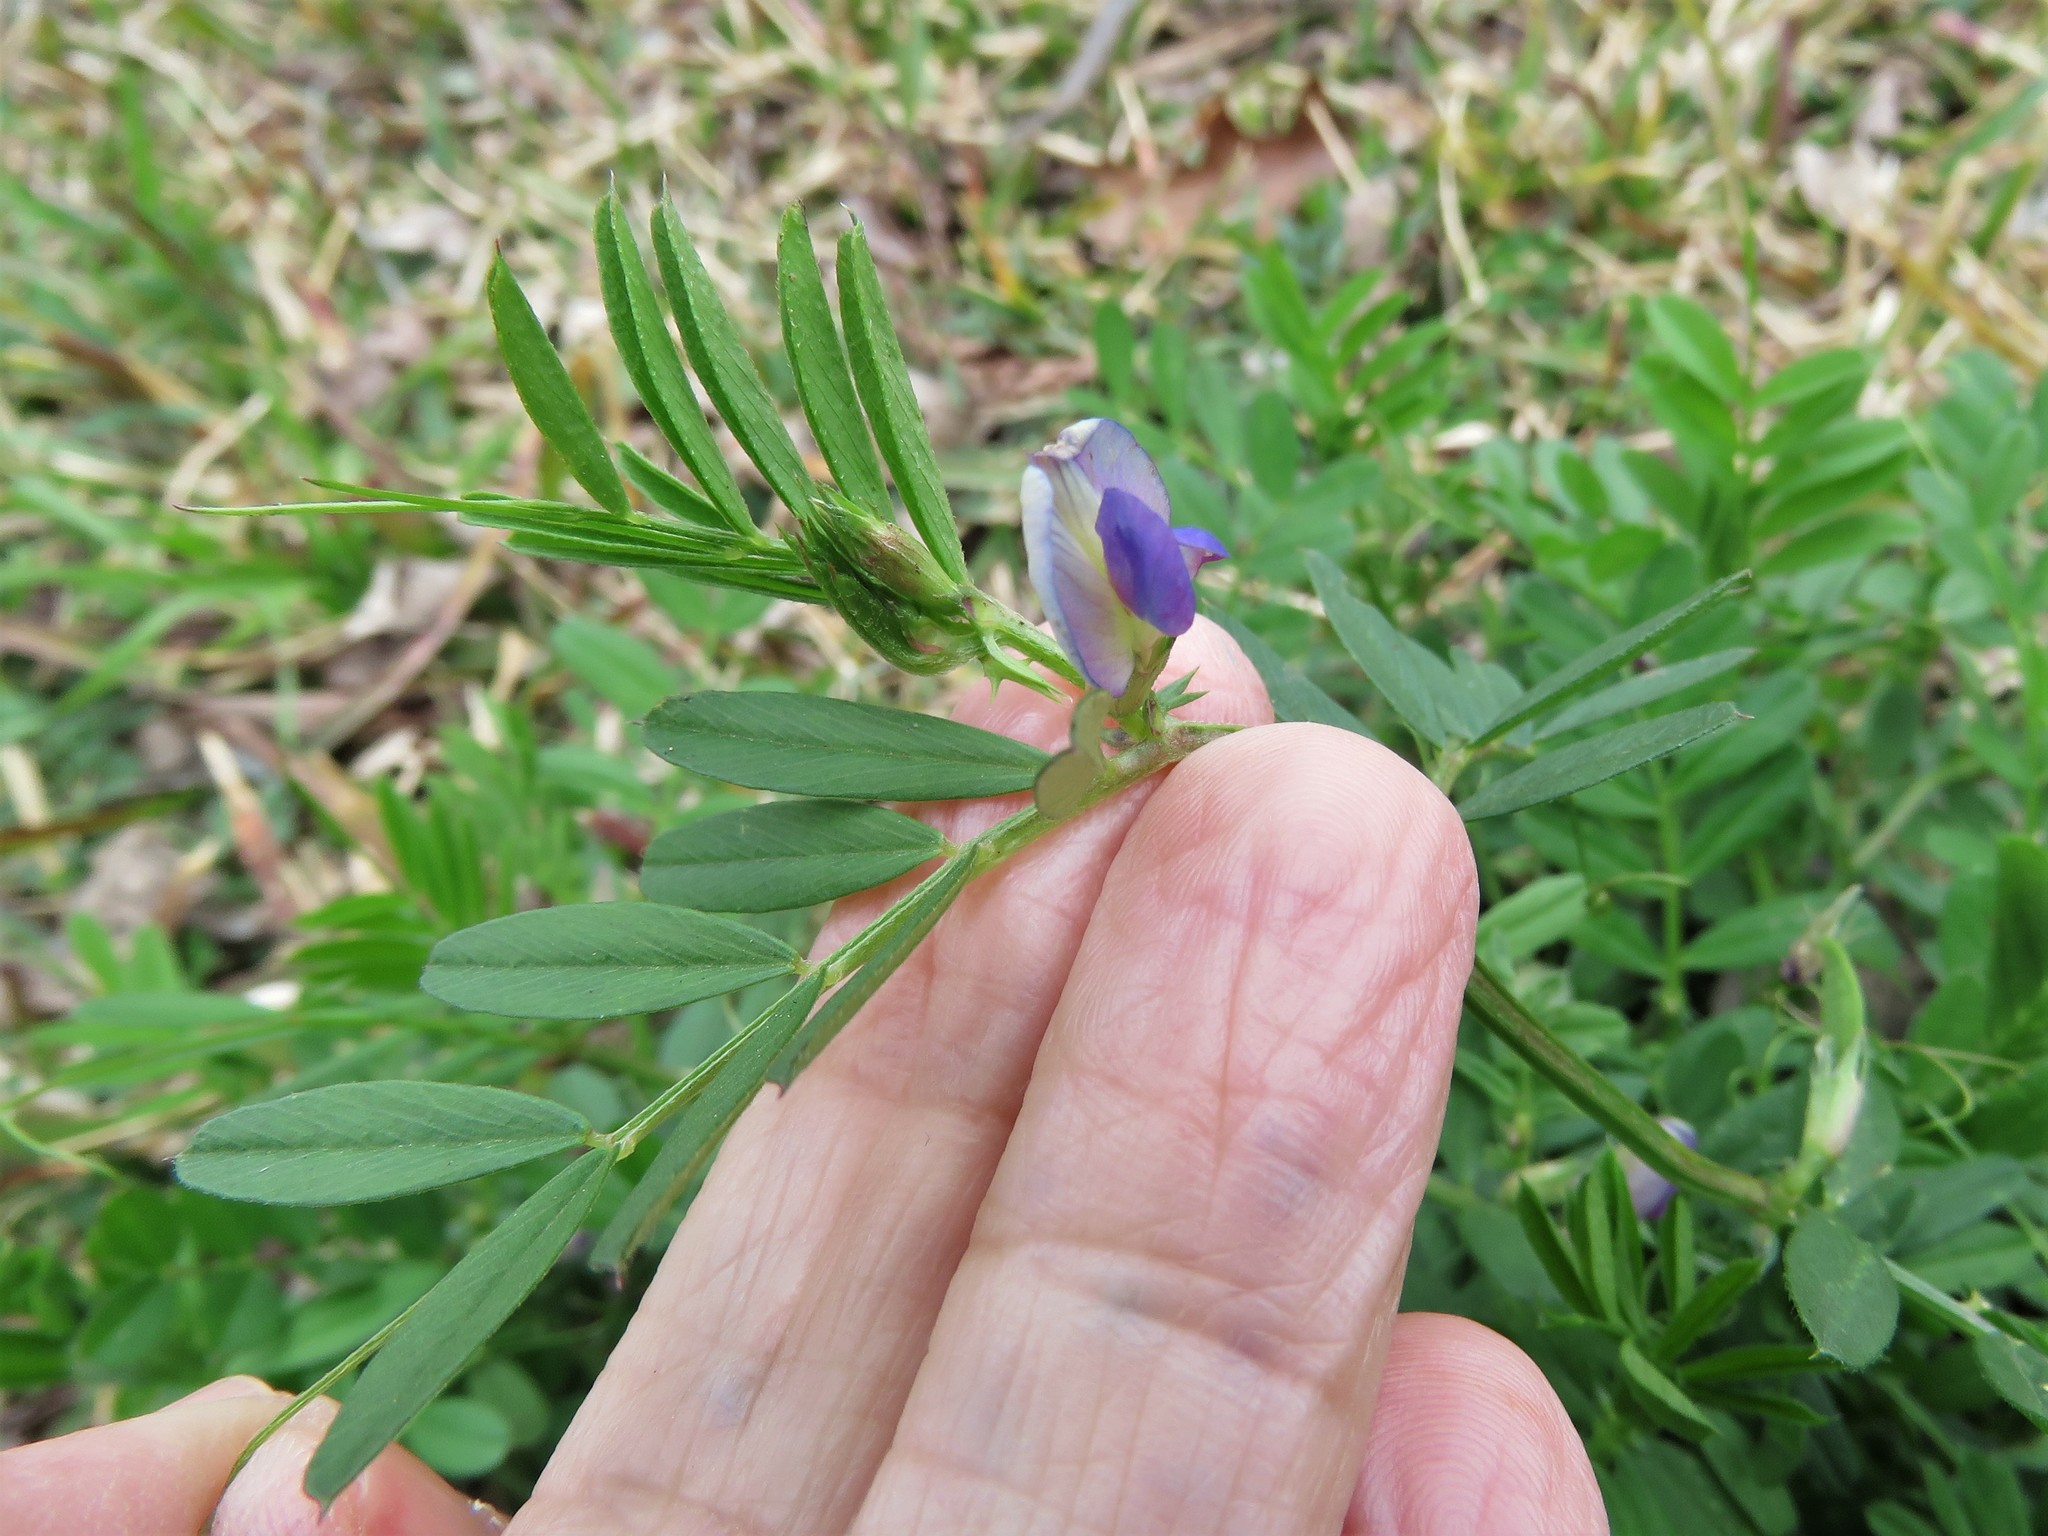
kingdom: Plantae
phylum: Tracheophyta
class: Magnoliopsida
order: Fabales
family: Fabaceae
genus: Vicia
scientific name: Vicia sativa
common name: Garden vetch
